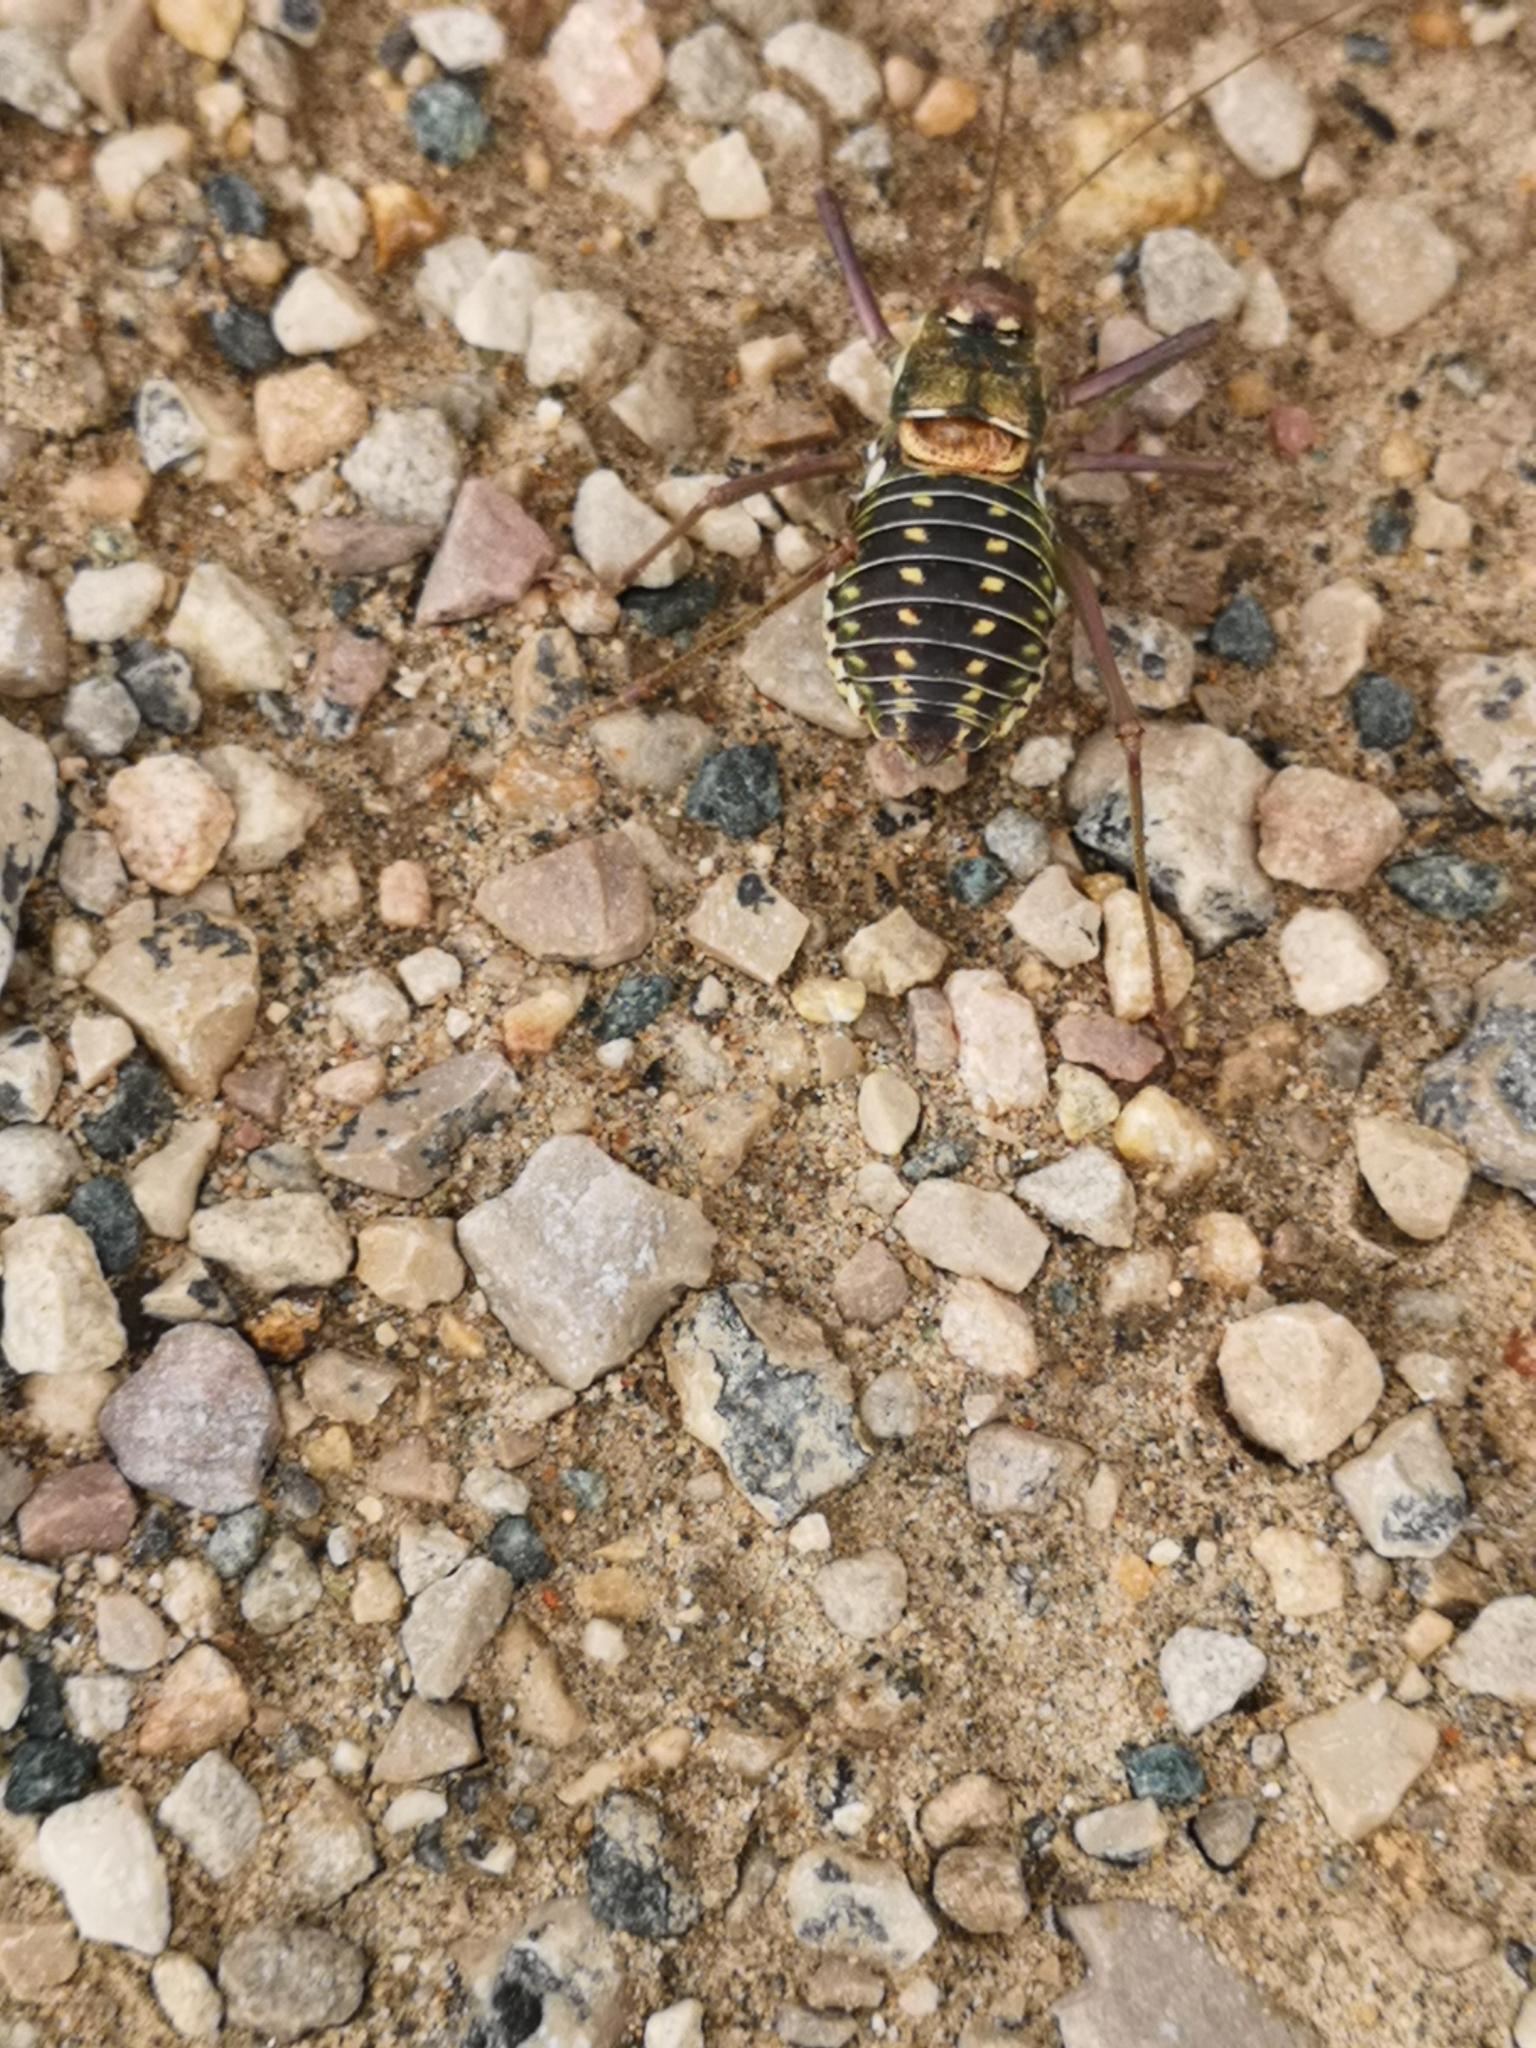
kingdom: Animalia
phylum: Arthropoda
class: Insecta
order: Orthoptera
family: Tettigoniidae
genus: Parasteropleurus
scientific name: Parasteropleurus martorellii
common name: Martorell's saddle bush-cricket
